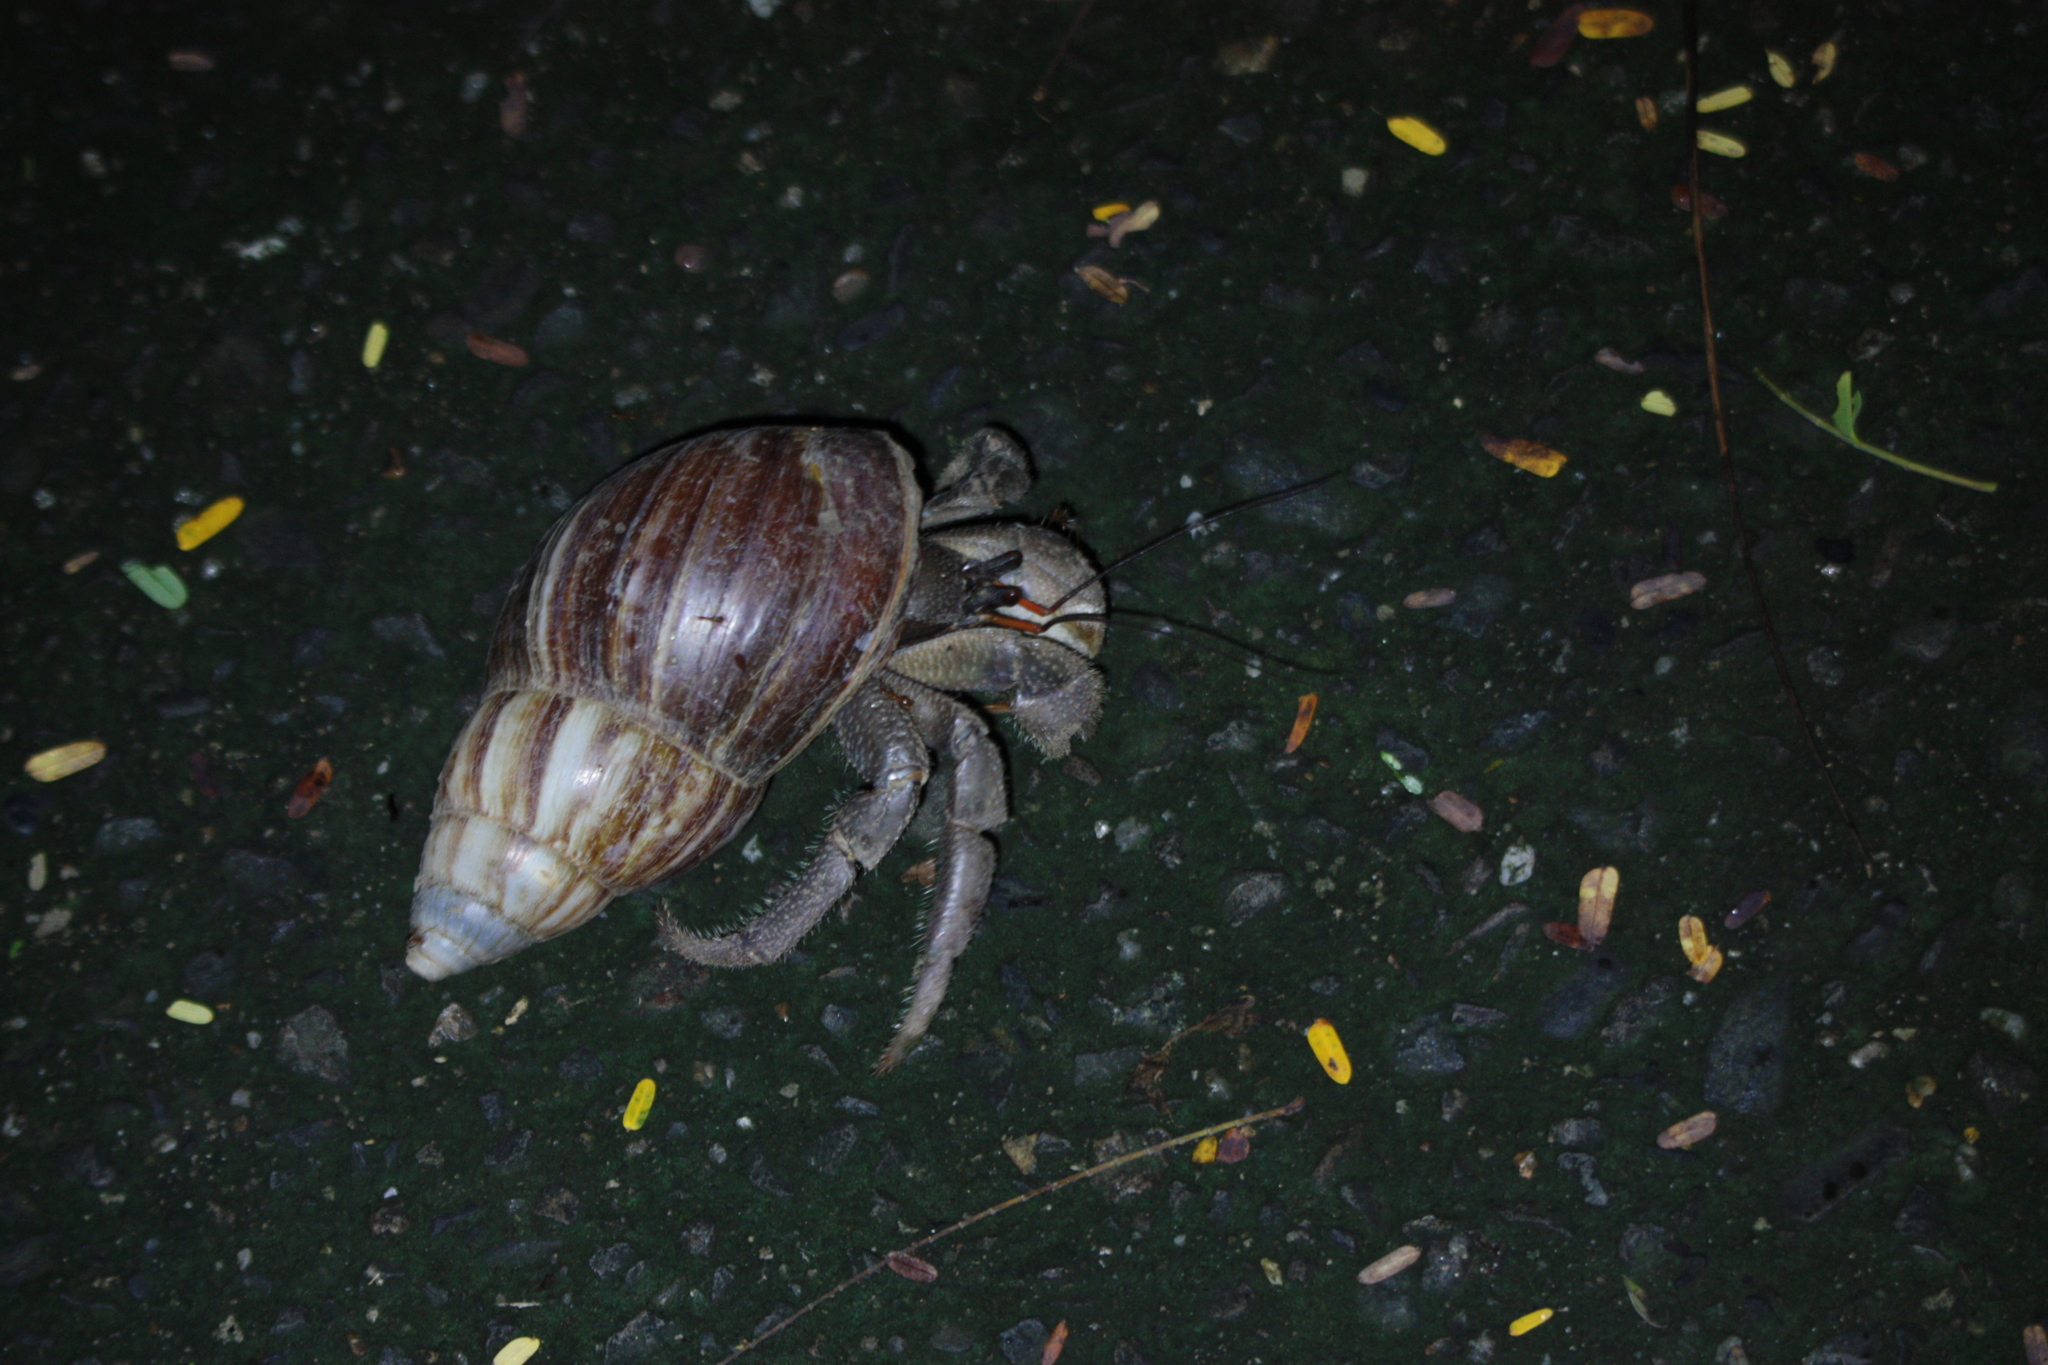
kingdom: Animalia
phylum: Arthropoda
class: Malacostraca
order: Decapoda
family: Coenobitidae
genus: Coenobita
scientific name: Coenobita cavipes
